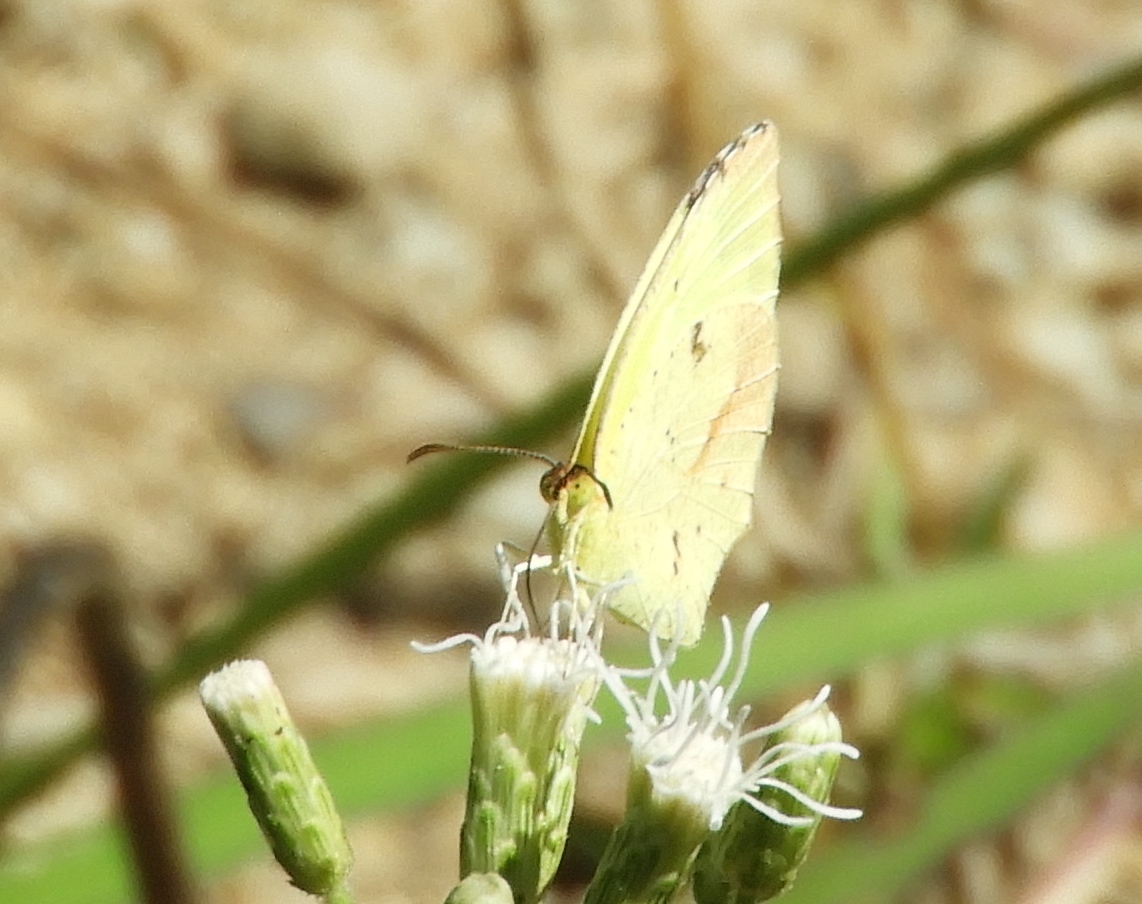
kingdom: Animalia
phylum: Arthropoda
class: Insecta
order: Lepidoptera
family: Pieridae
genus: Abaeis
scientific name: Abaeis boisduvaliana
